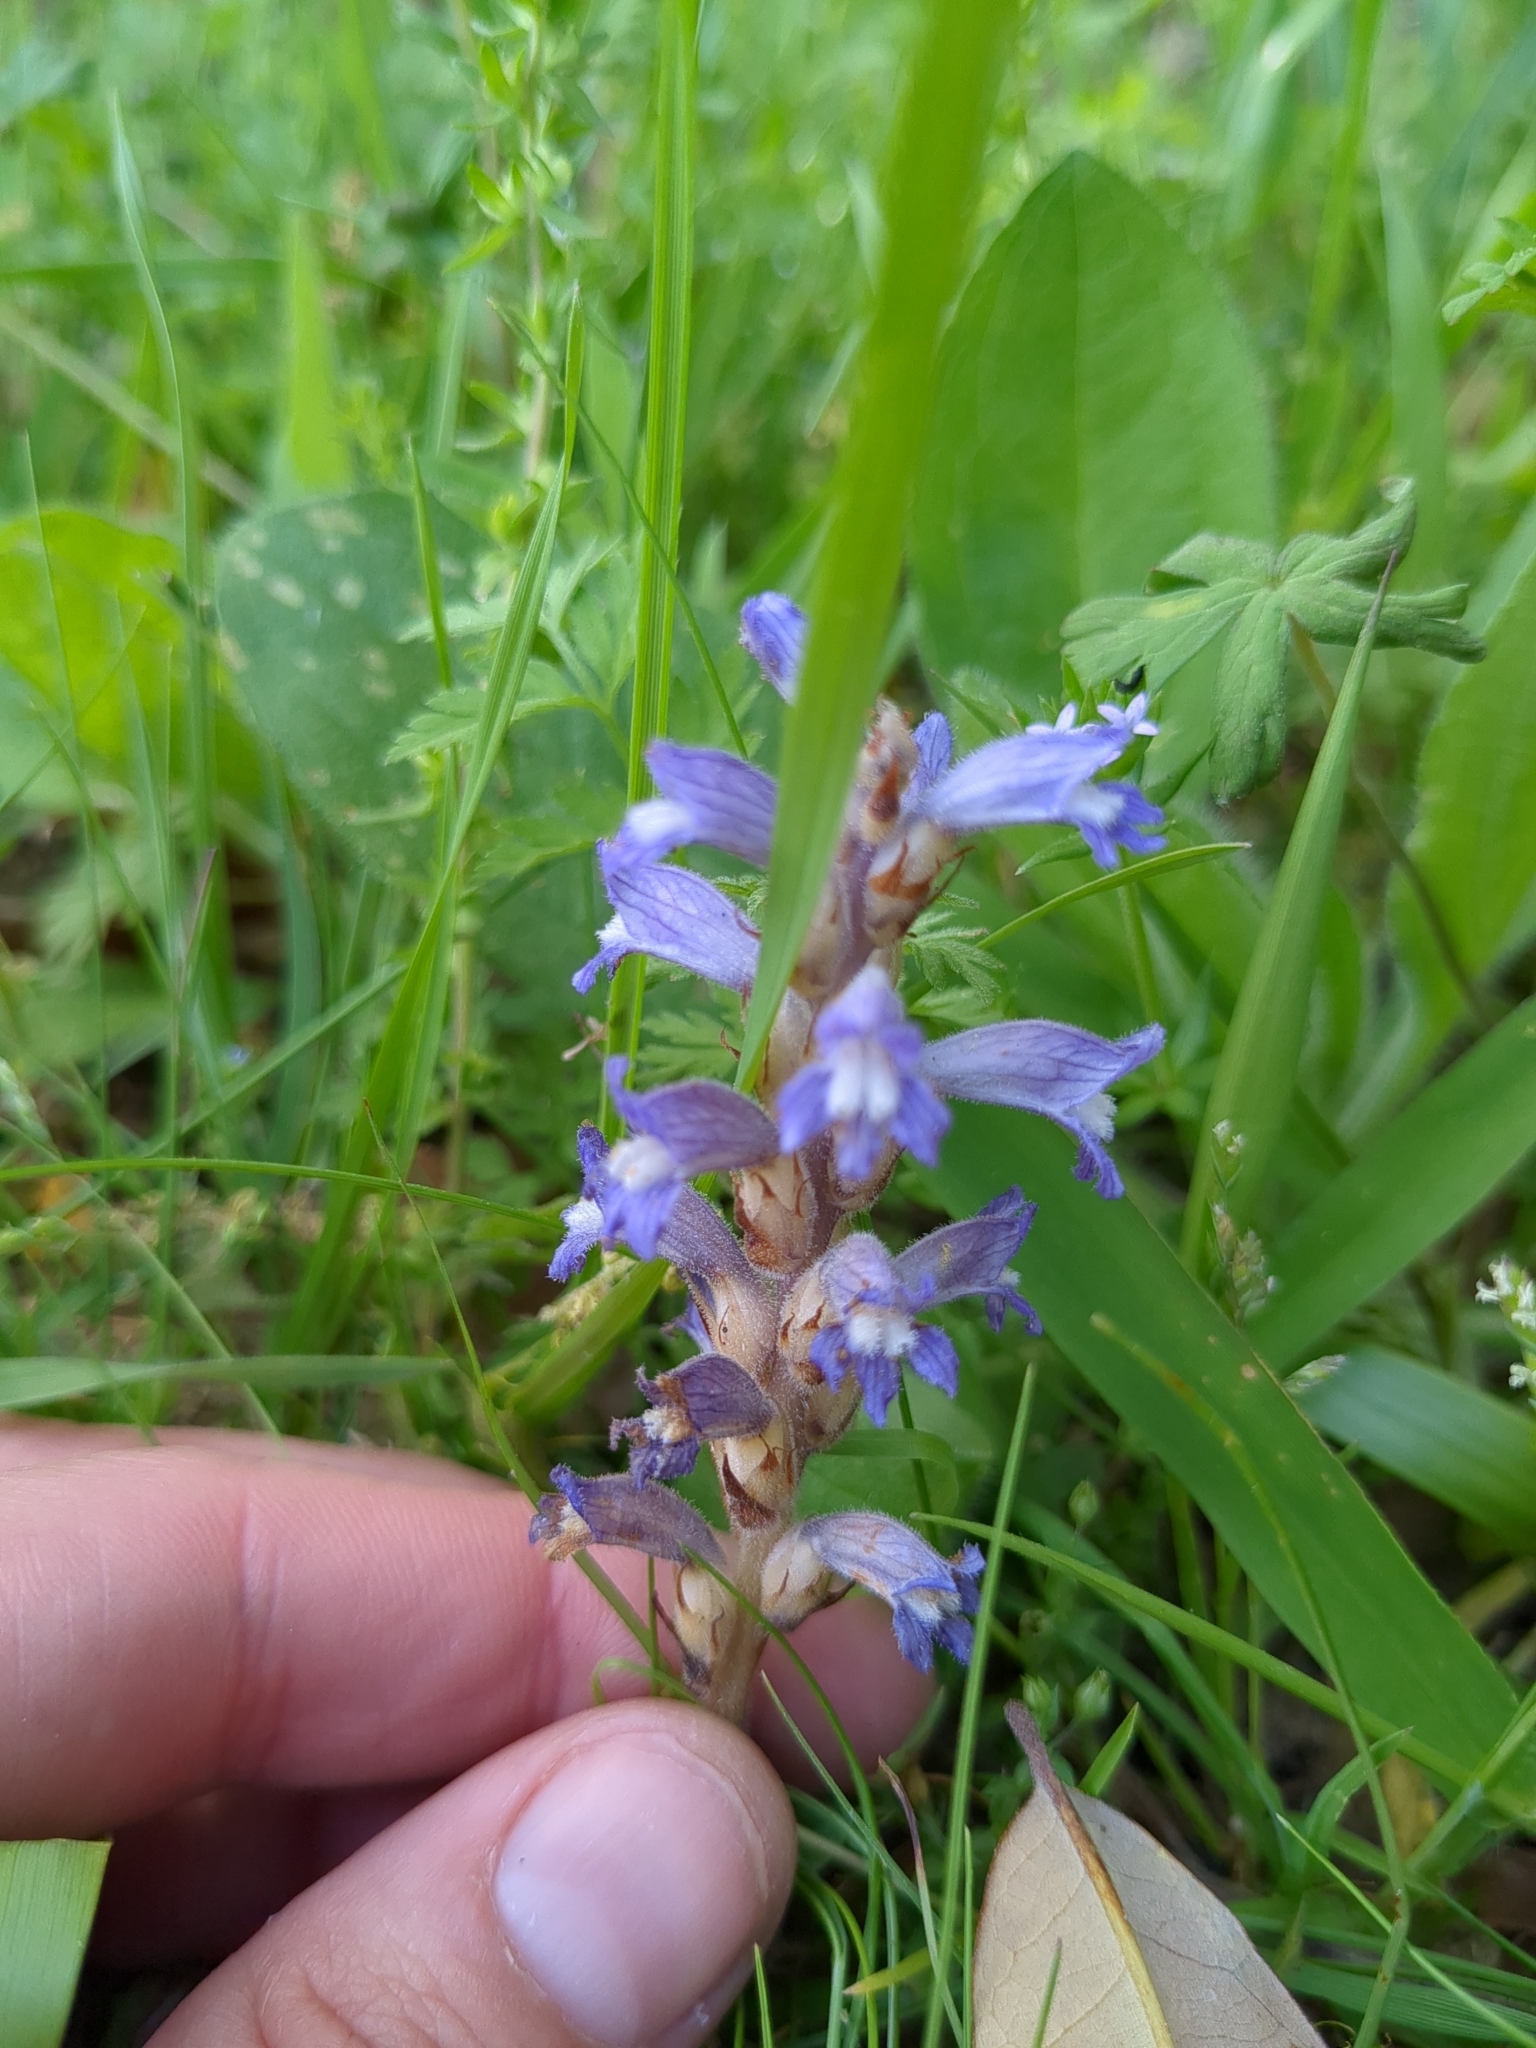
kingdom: Plantae
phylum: Tracheophyta
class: Magnoliopsida
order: Lamiales
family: Orobanchaceae
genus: Phelipanche
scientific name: Phelipanche mutelii
